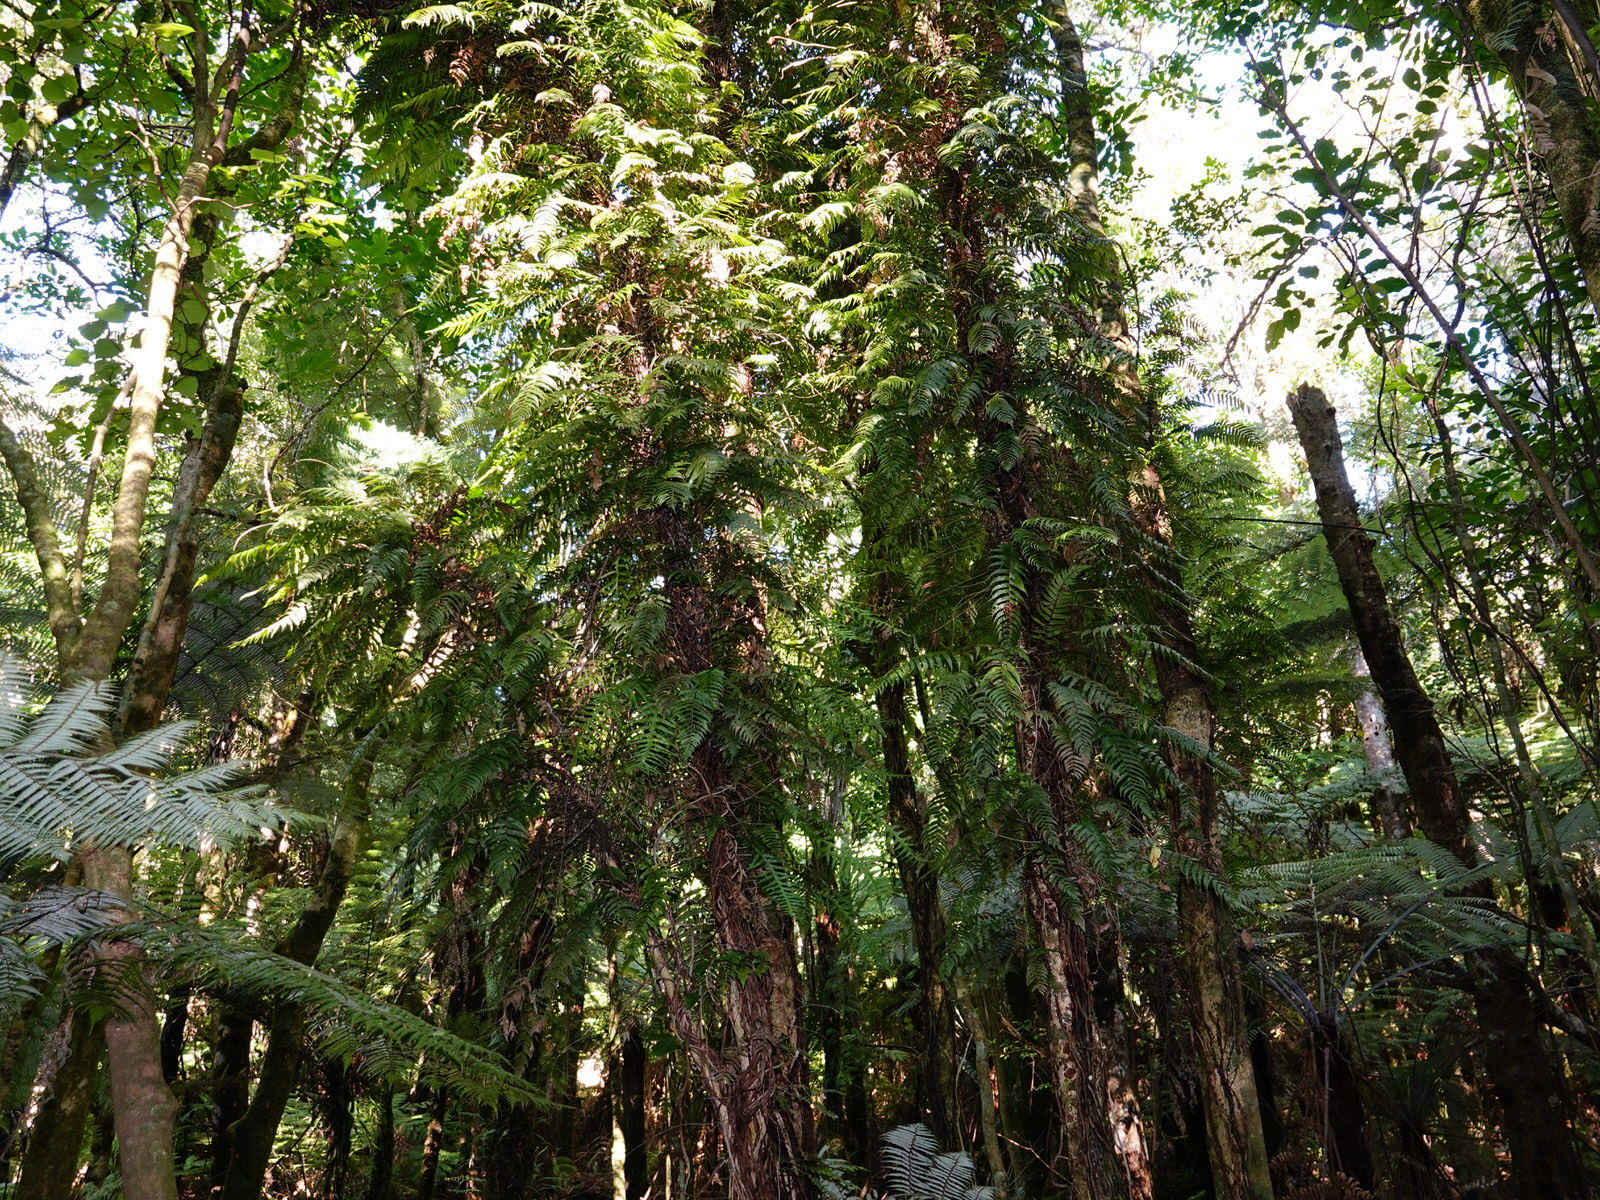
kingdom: Plantae
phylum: Tracheophyta
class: Polypodiopsida
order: Polypodiales
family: Blechnaceae
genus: Icarus
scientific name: Icarus filiformis
